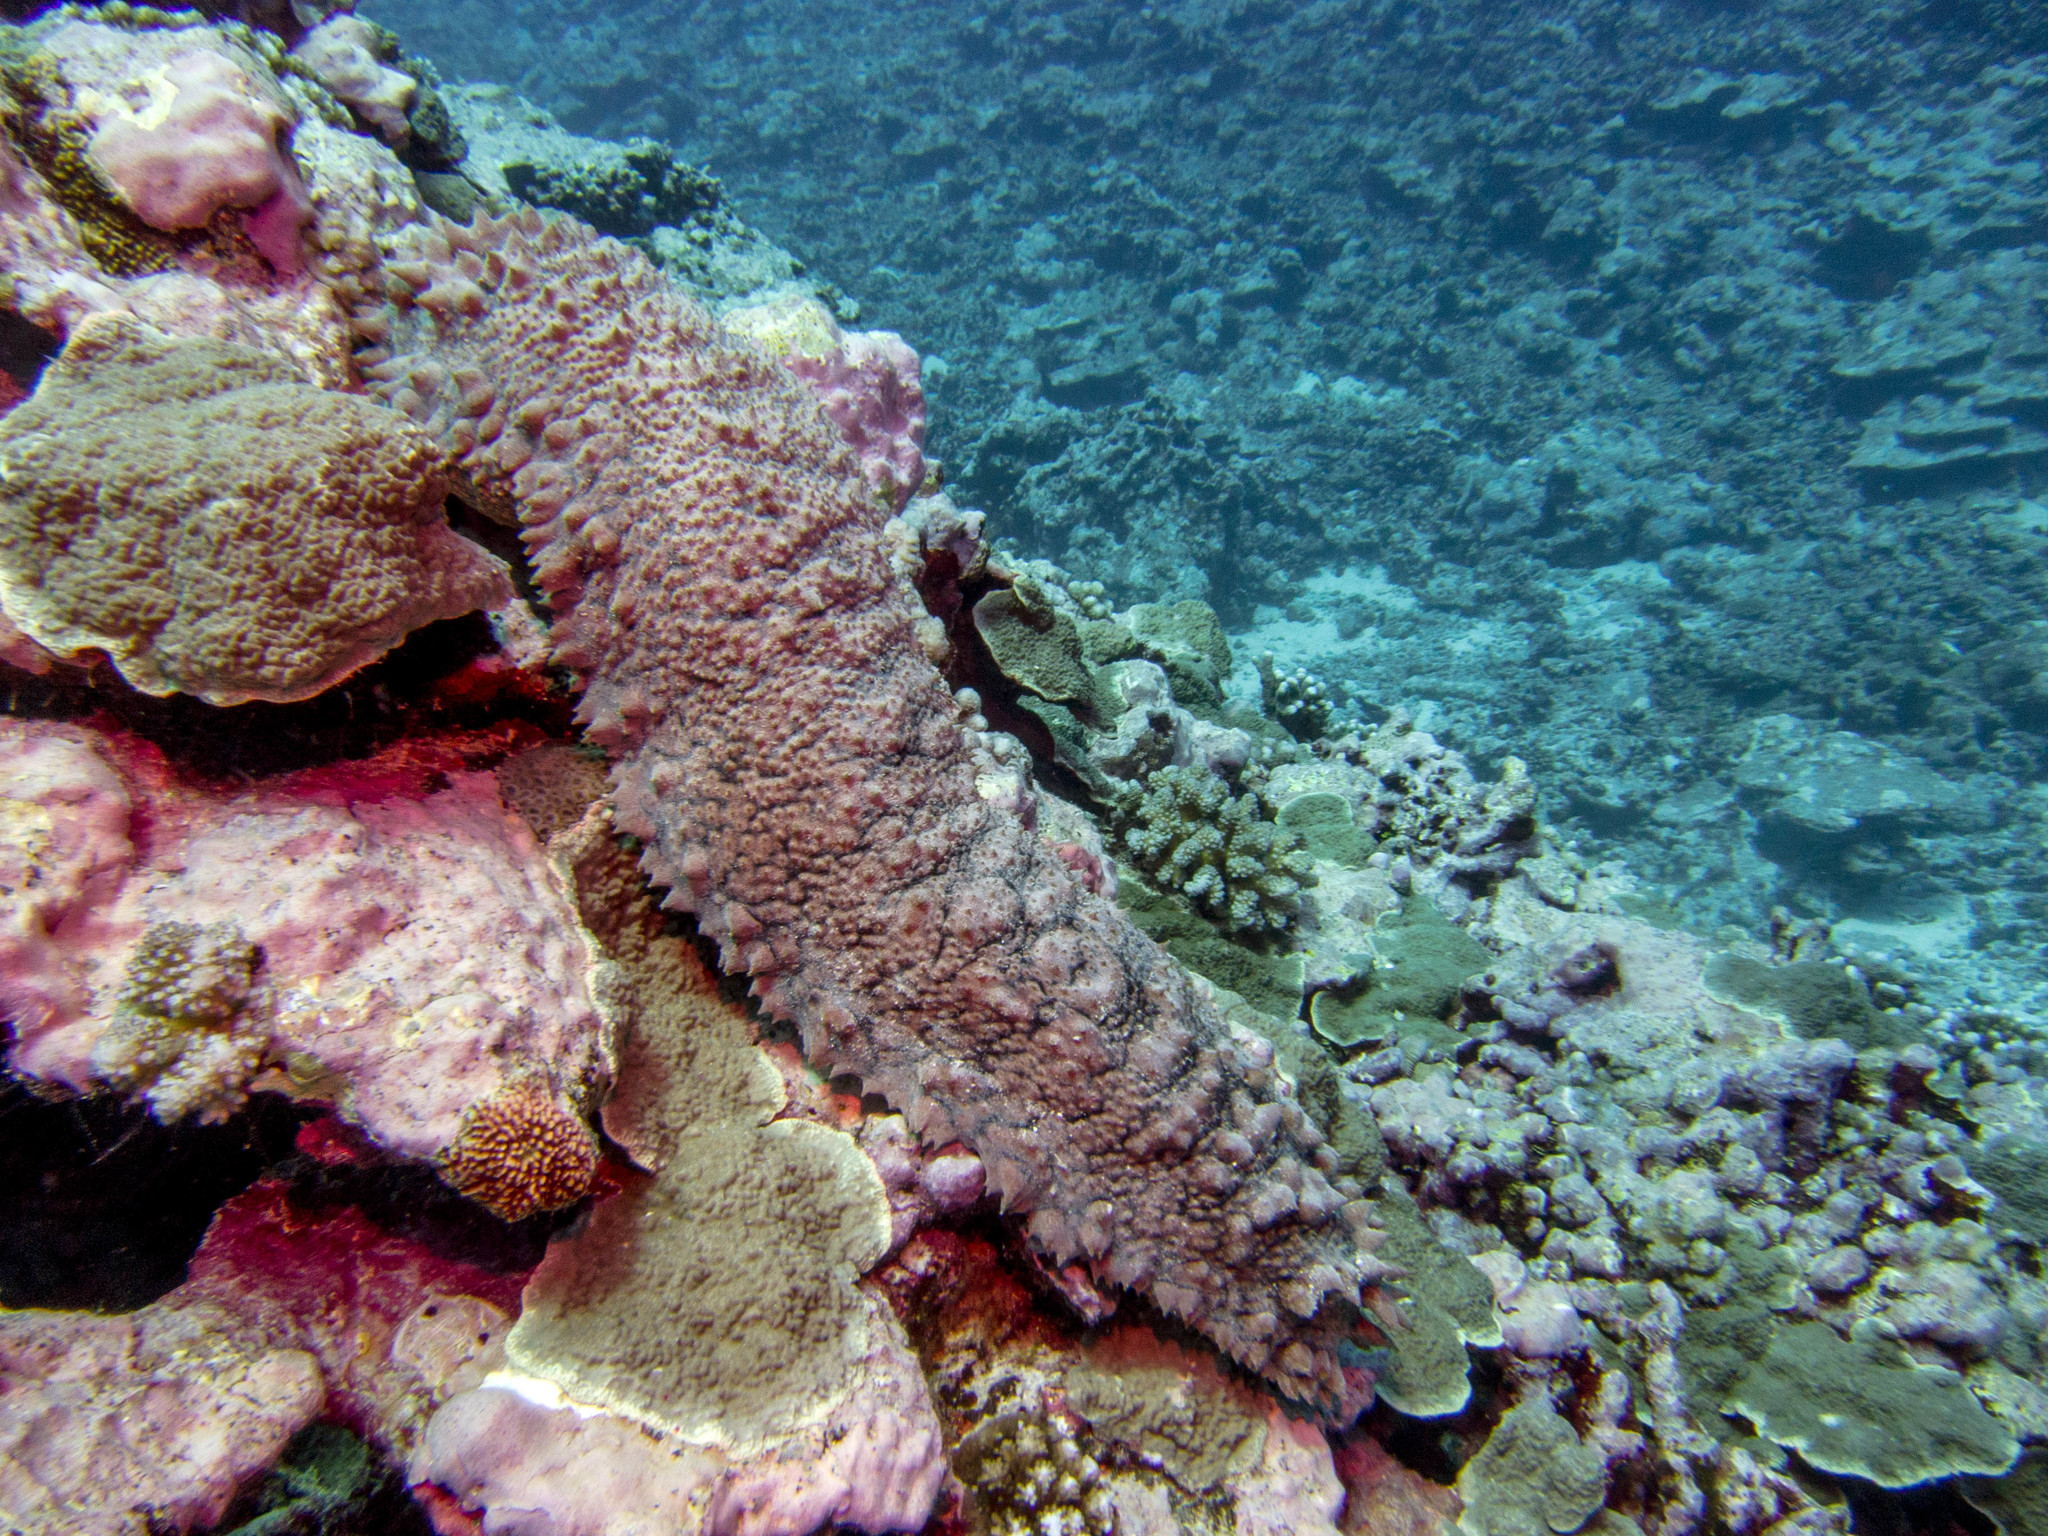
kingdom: Animalia
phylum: Echinodermata
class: Holothuroidea
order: Synallactida
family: Stichopodidae
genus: Thelenota
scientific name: Thelenota ananas
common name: Prickly redfish
